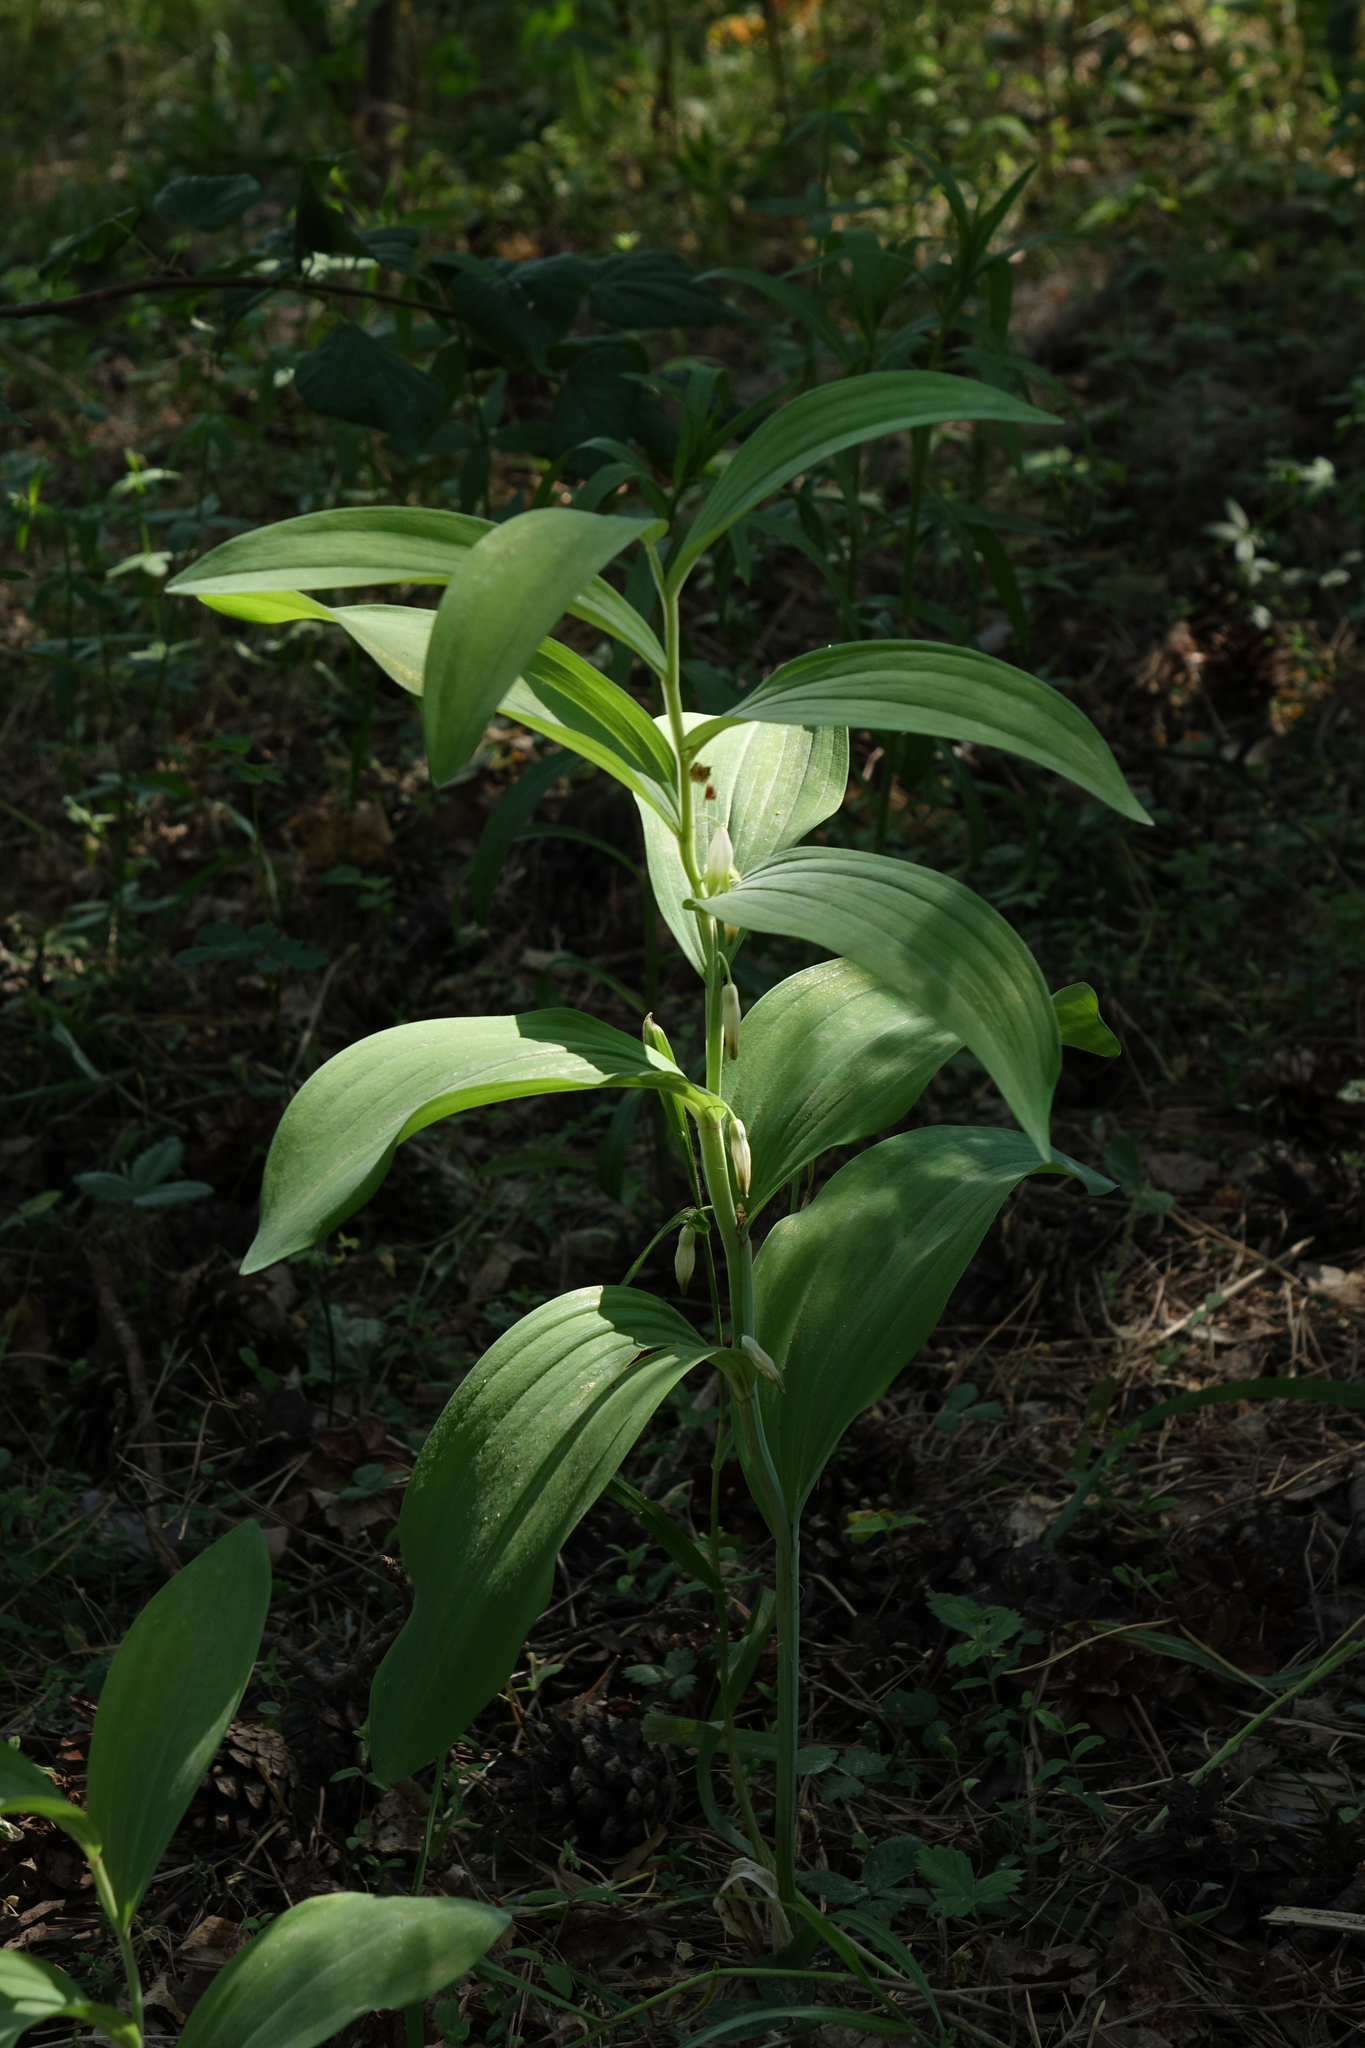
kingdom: Plantae
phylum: Tracheophyta
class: Liliopsida
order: Asparagales
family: Asparagaceae
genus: Polygonatum
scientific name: Polygonatum odoratum
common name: Angular solomon's-seal
